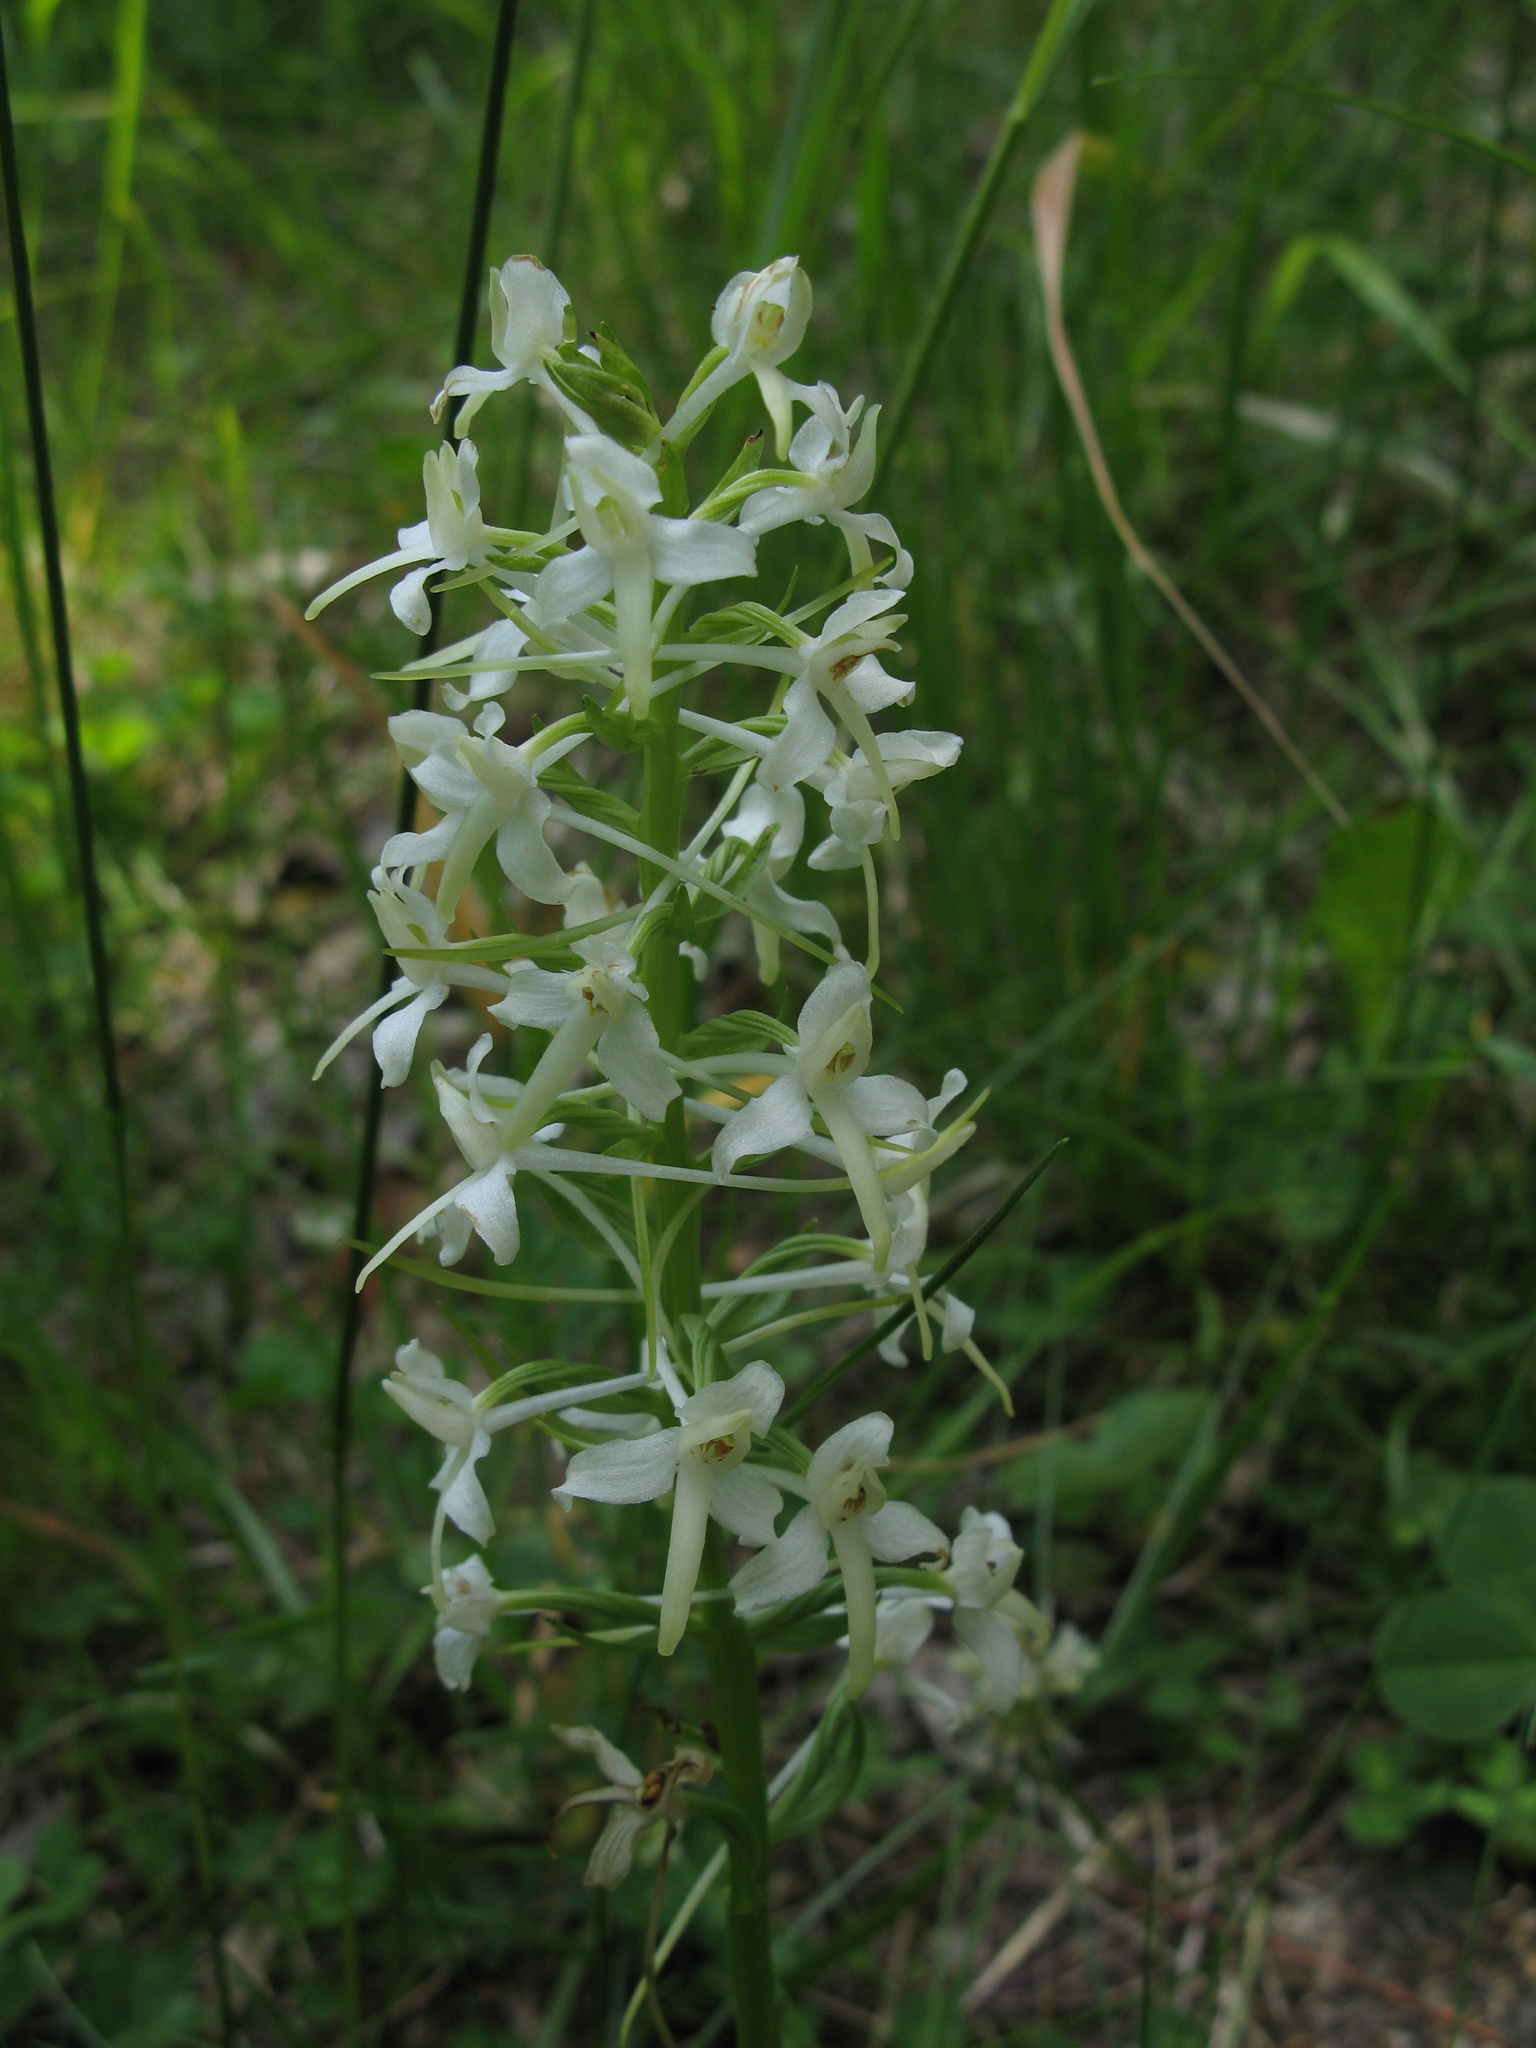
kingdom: Plantae
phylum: Tracheophyta
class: Liliopsida
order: Asparagales
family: Orchidaceae
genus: Platanthera
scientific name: Platanthera chlorantha
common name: Greater butterfly-orchid
